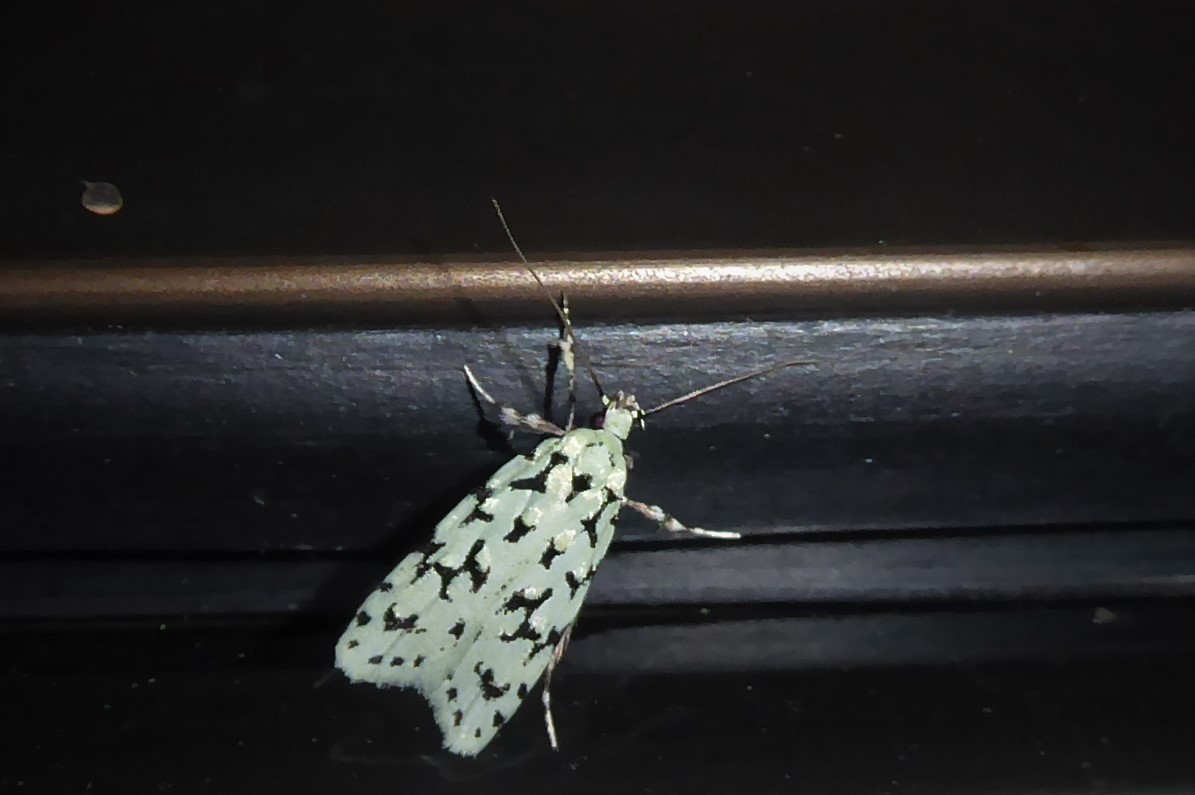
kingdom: Animalia
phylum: Arthropoda
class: Insecta
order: Lepidoptera
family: Oecophoridae
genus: Izatha
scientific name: Izatha huttoni
